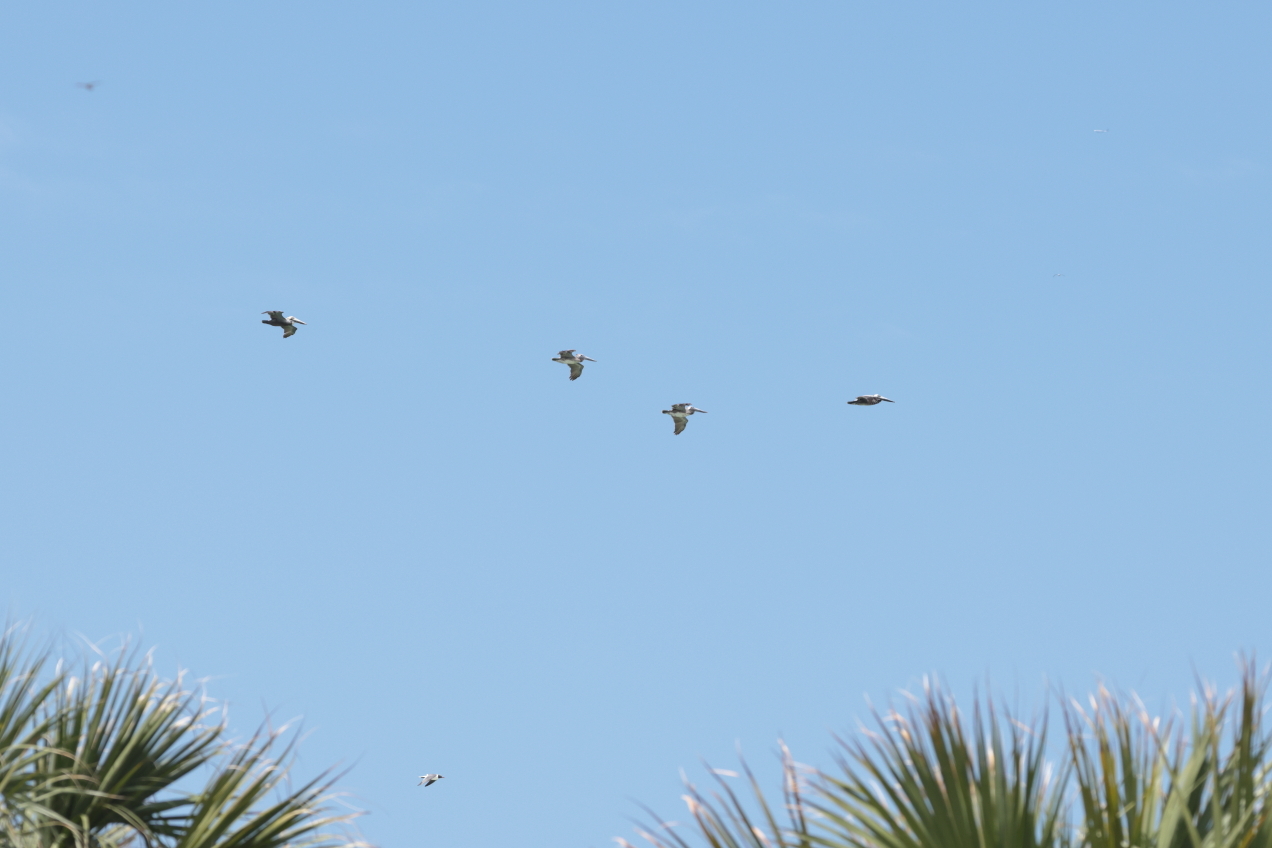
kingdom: Animalia
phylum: Chordata
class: Aves
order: Pelecaniformes
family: Pelecanidae
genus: Pelecanus
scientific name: Pelecanus occidentalis
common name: Brown pelican
